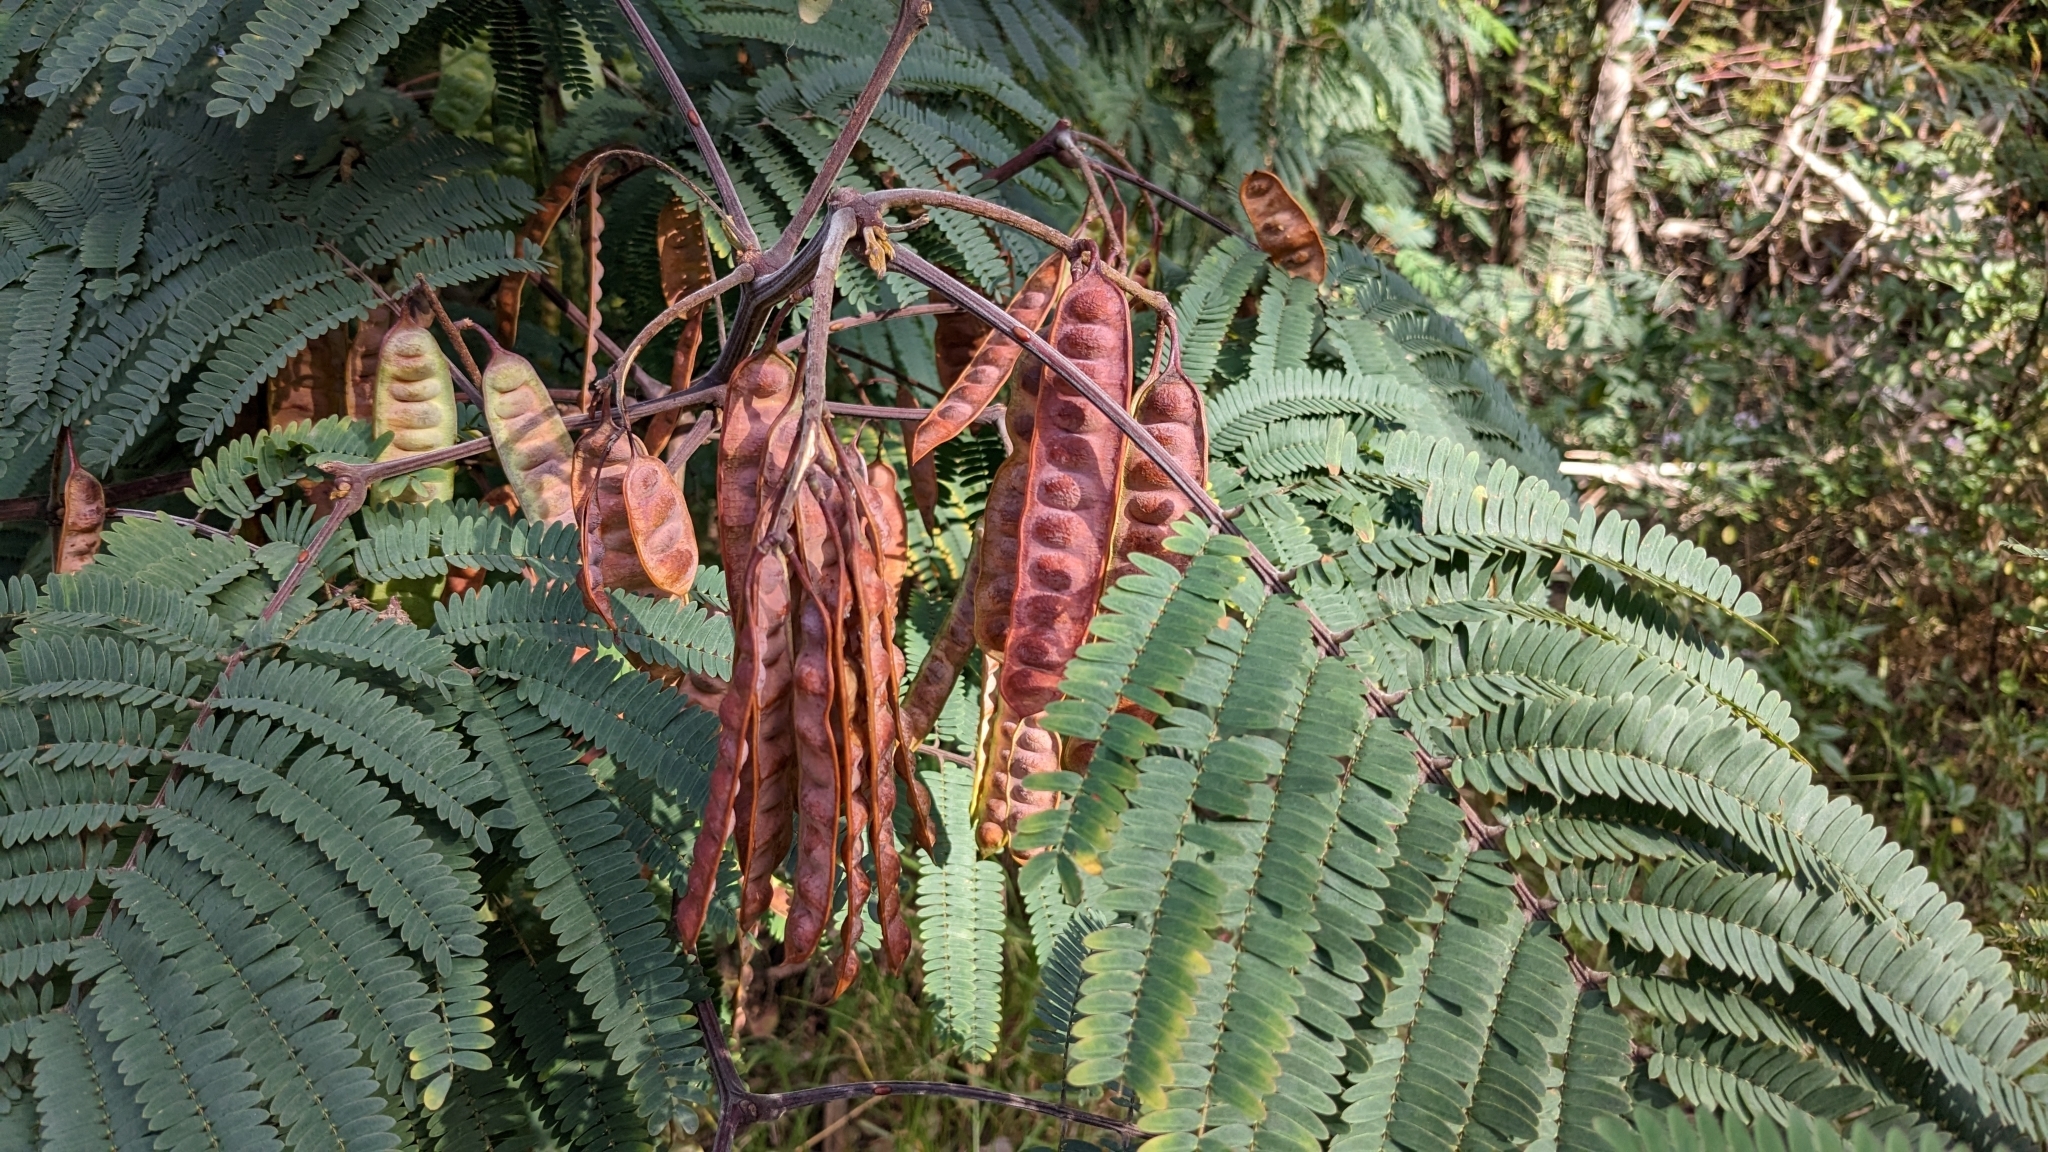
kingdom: Plantae
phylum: Tracheophyta
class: Magnoliopsida
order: Fabales
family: Fabaceae
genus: Paraserianthes
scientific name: Paraserianthes lophantha
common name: Plume albizia
